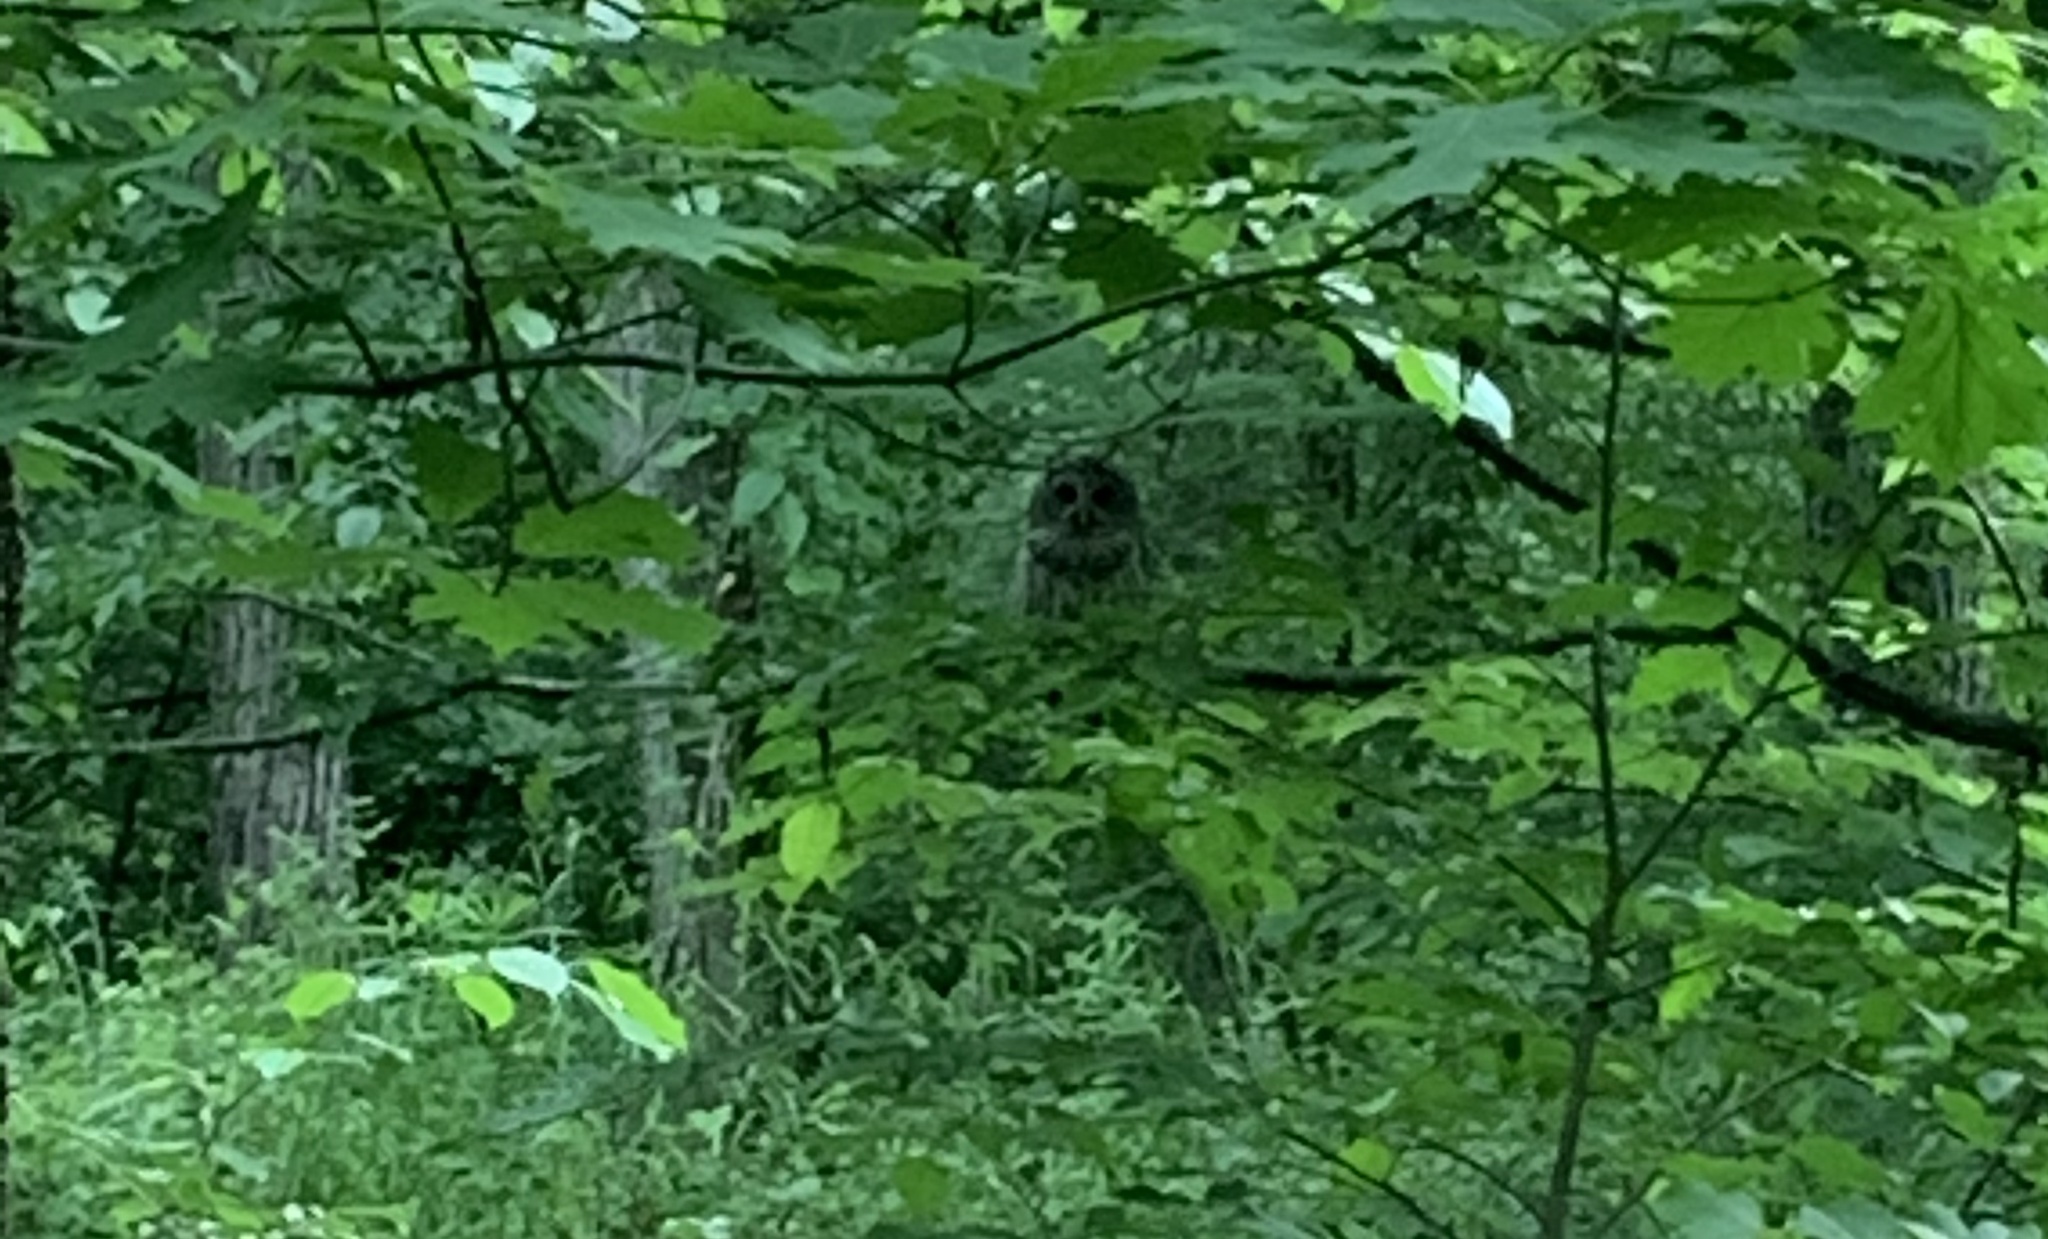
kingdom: Animalia
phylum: Chordata
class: Aves
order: Strigiformes
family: Strigidae
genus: Strix
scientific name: Strix varia
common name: Barred owl
